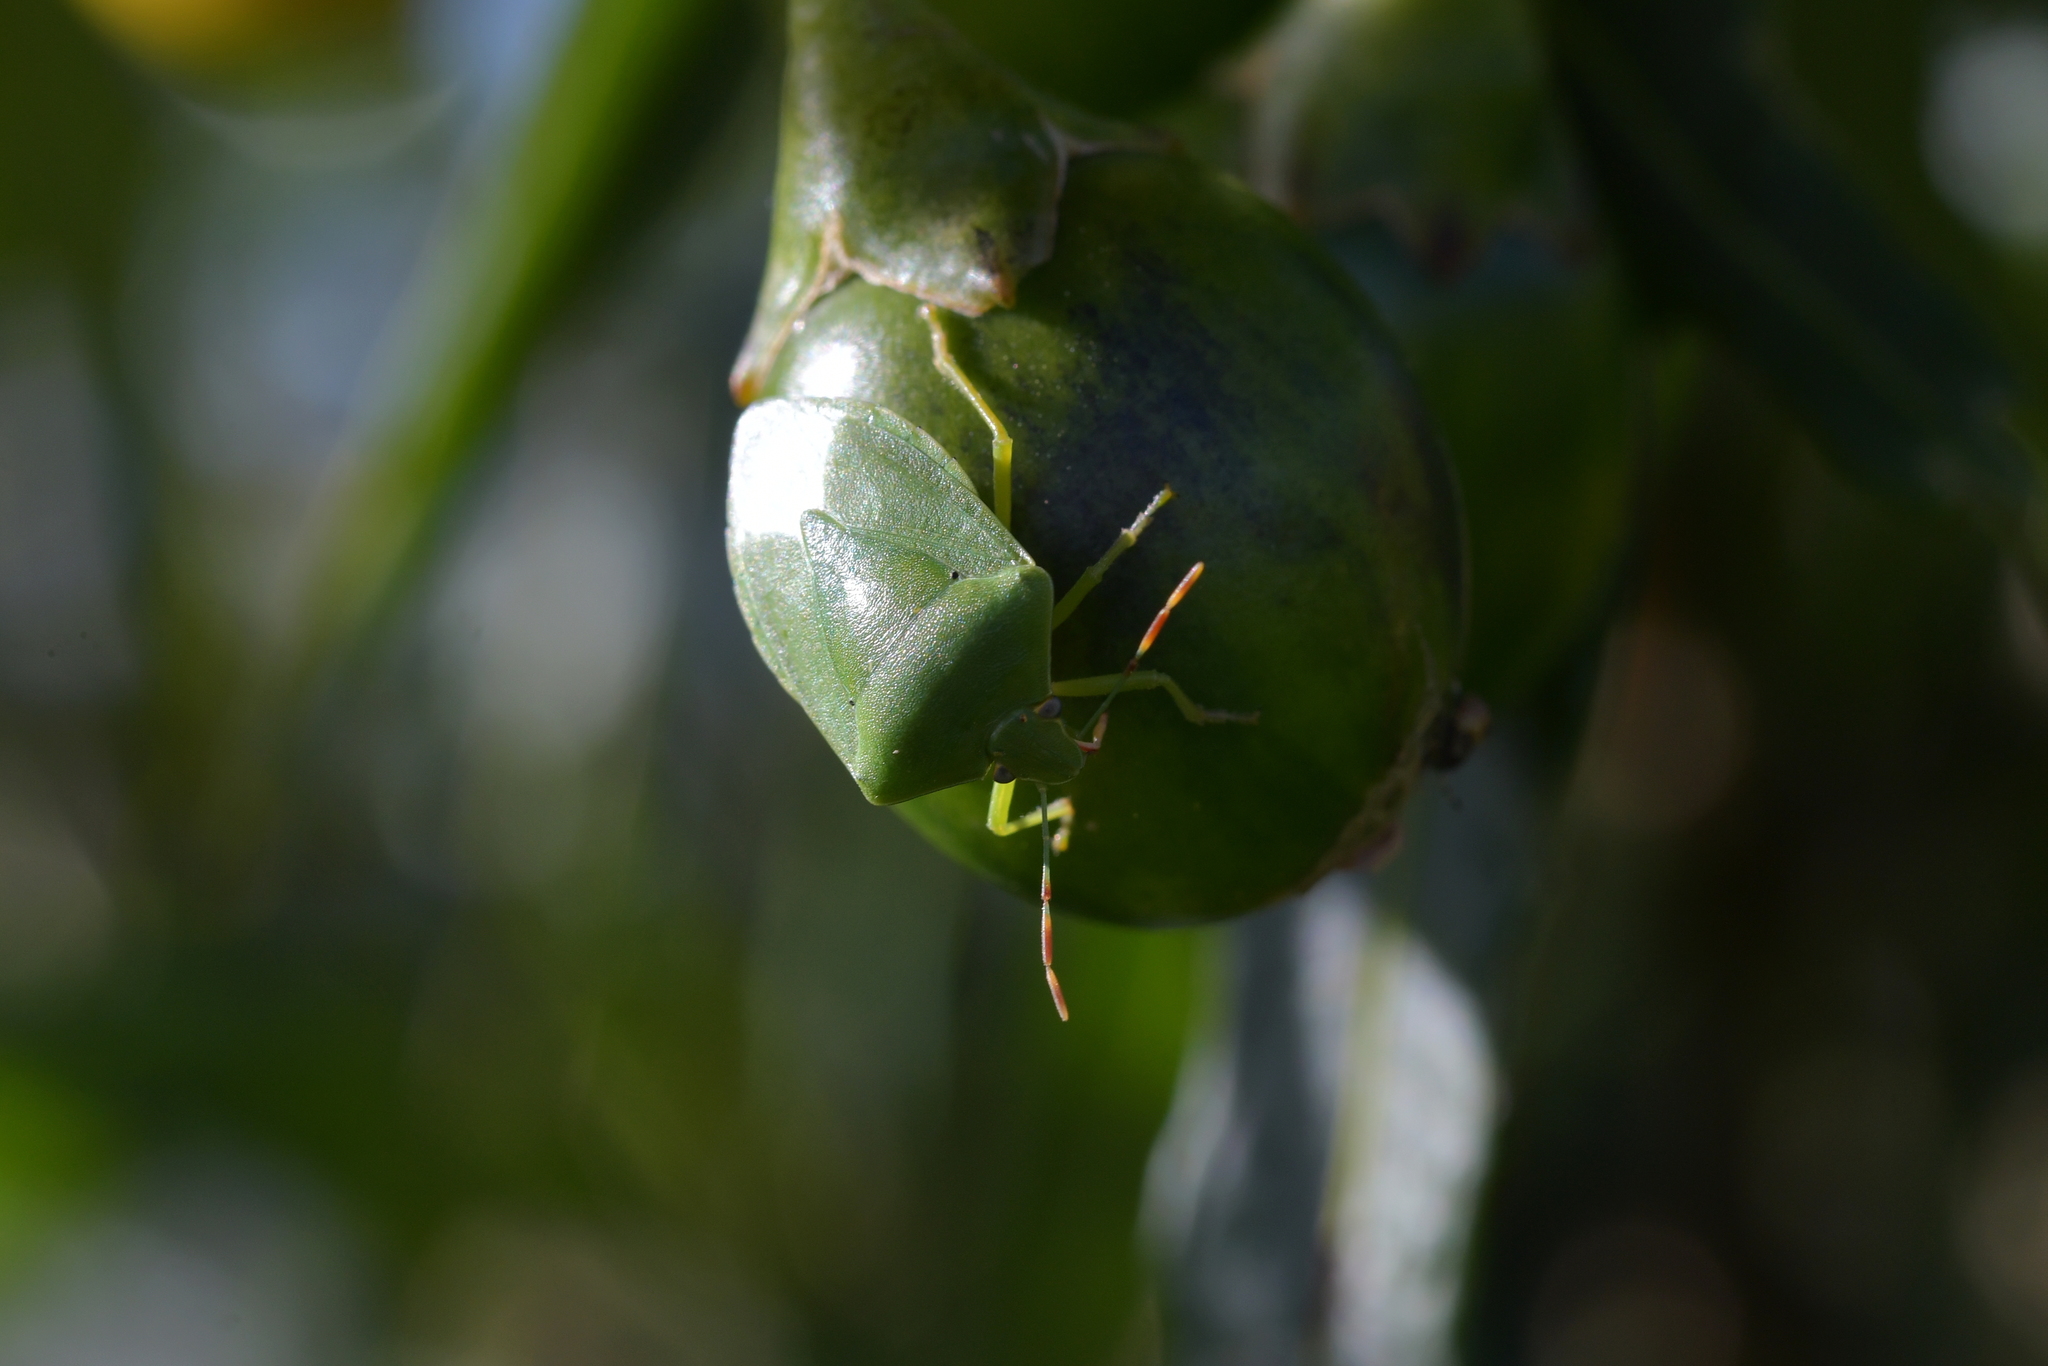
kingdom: Animalia
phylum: Arthropoda
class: Insecta
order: Hemiptera
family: Pentatomidae
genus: Glaucias
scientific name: Glaucias amyota
